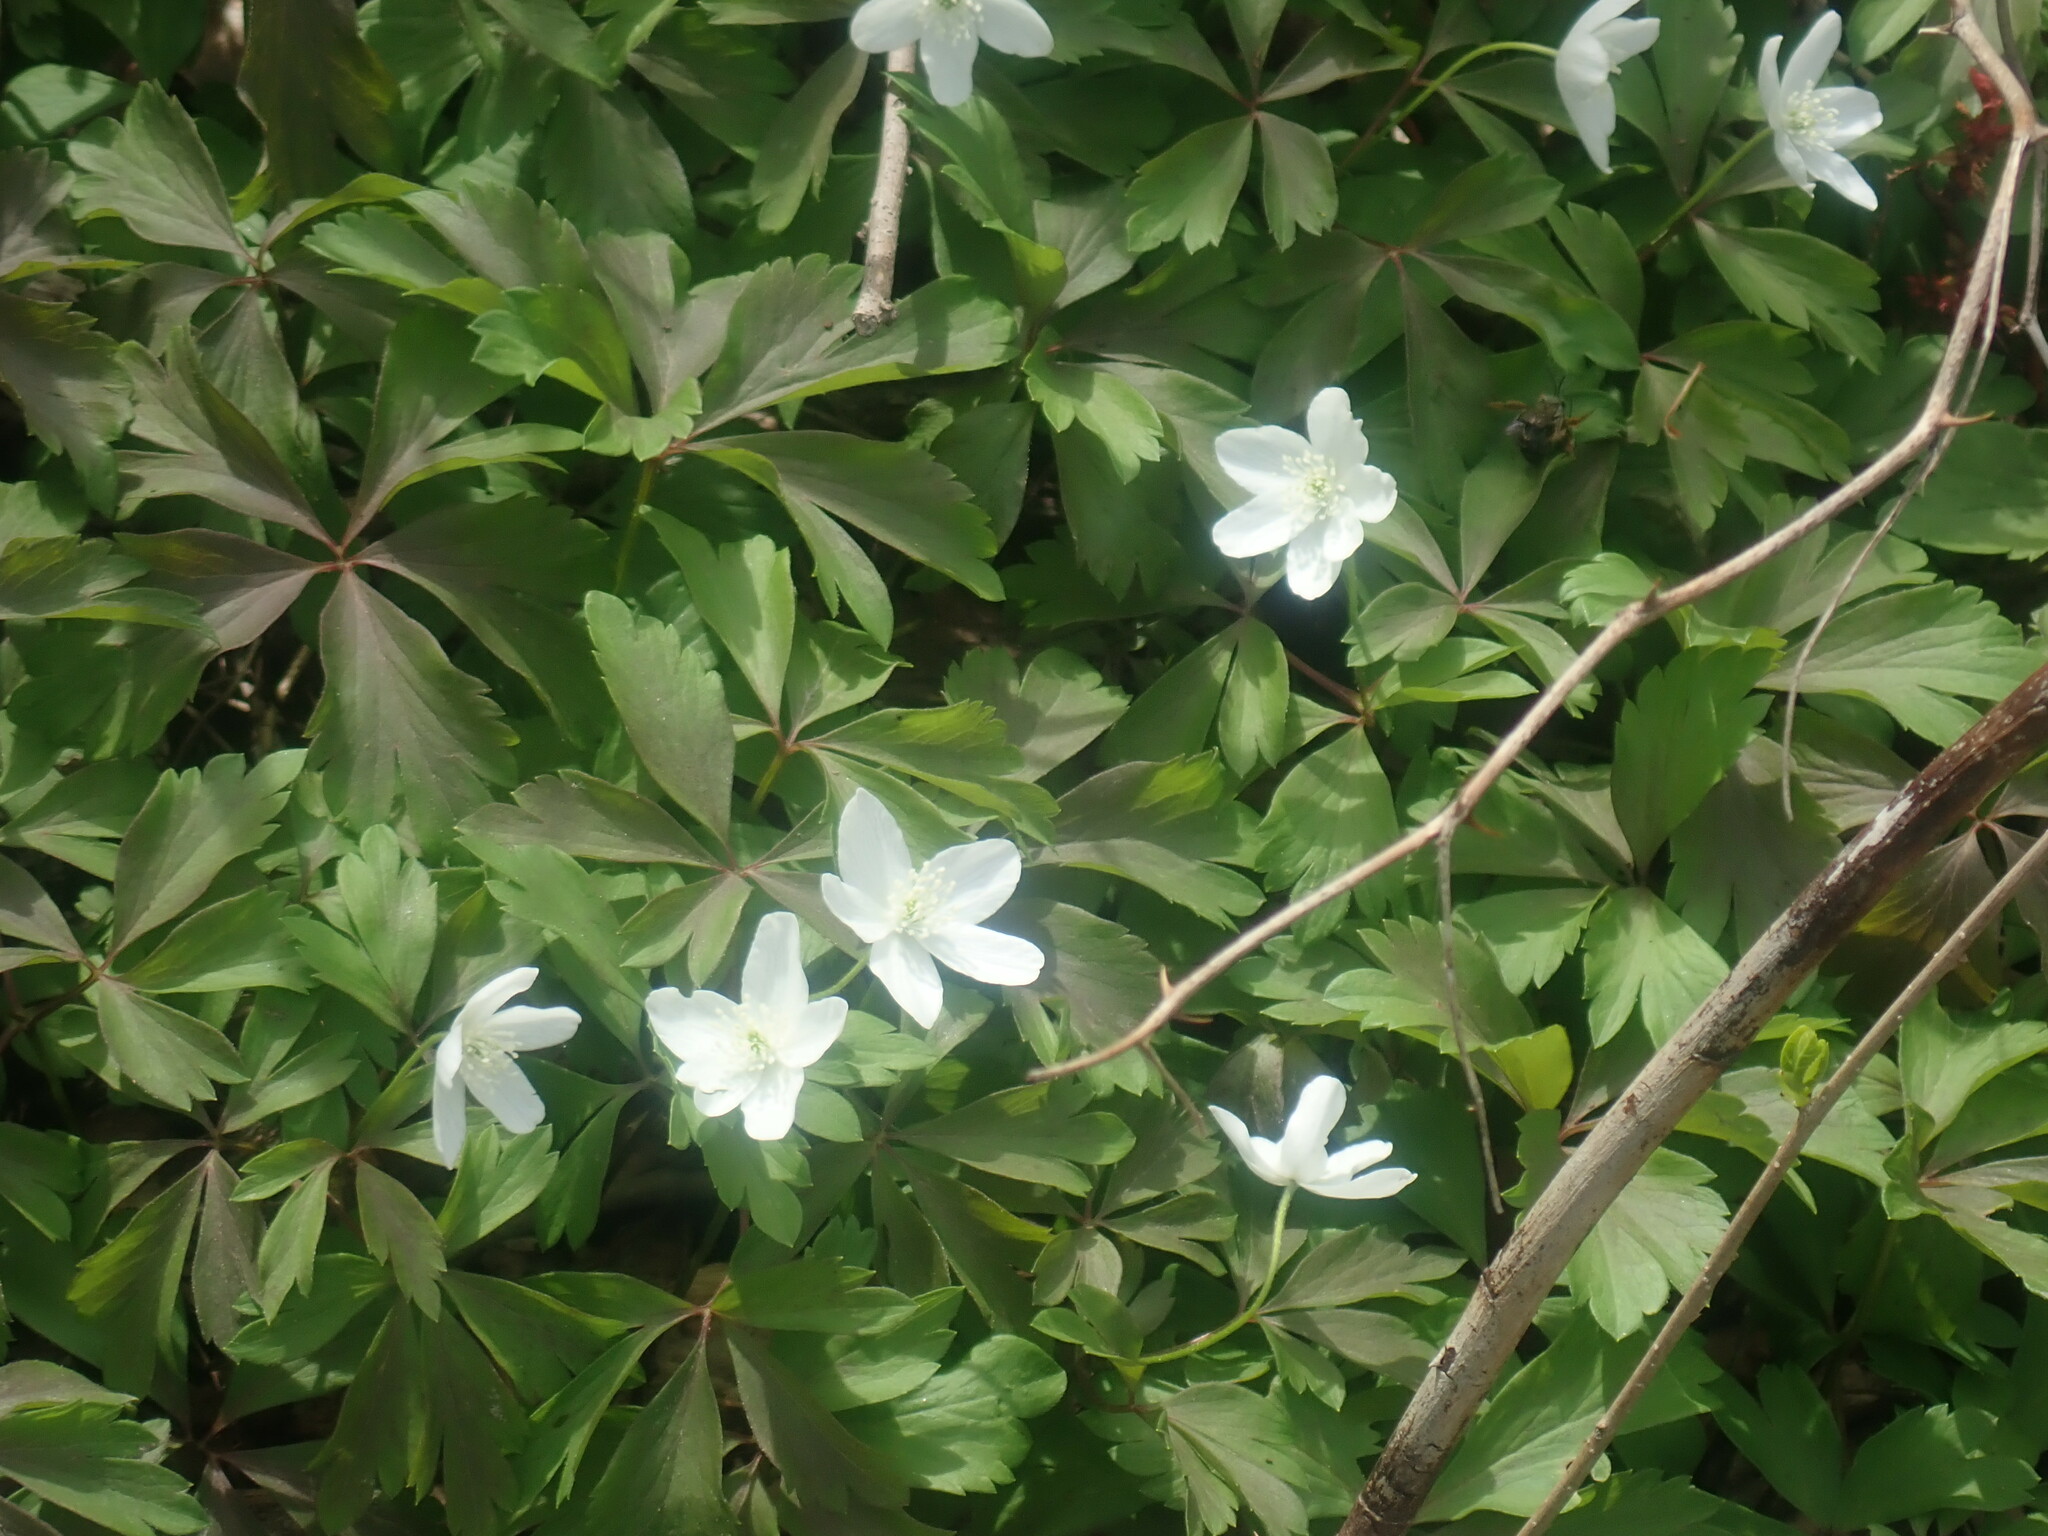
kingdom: Plantae
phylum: Tracheophyta
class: Magnoliopsida
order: Ranunculales
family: Ranunculaceae
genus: Anemone
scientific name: Anemone quinquefolia
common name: Wood anemone
